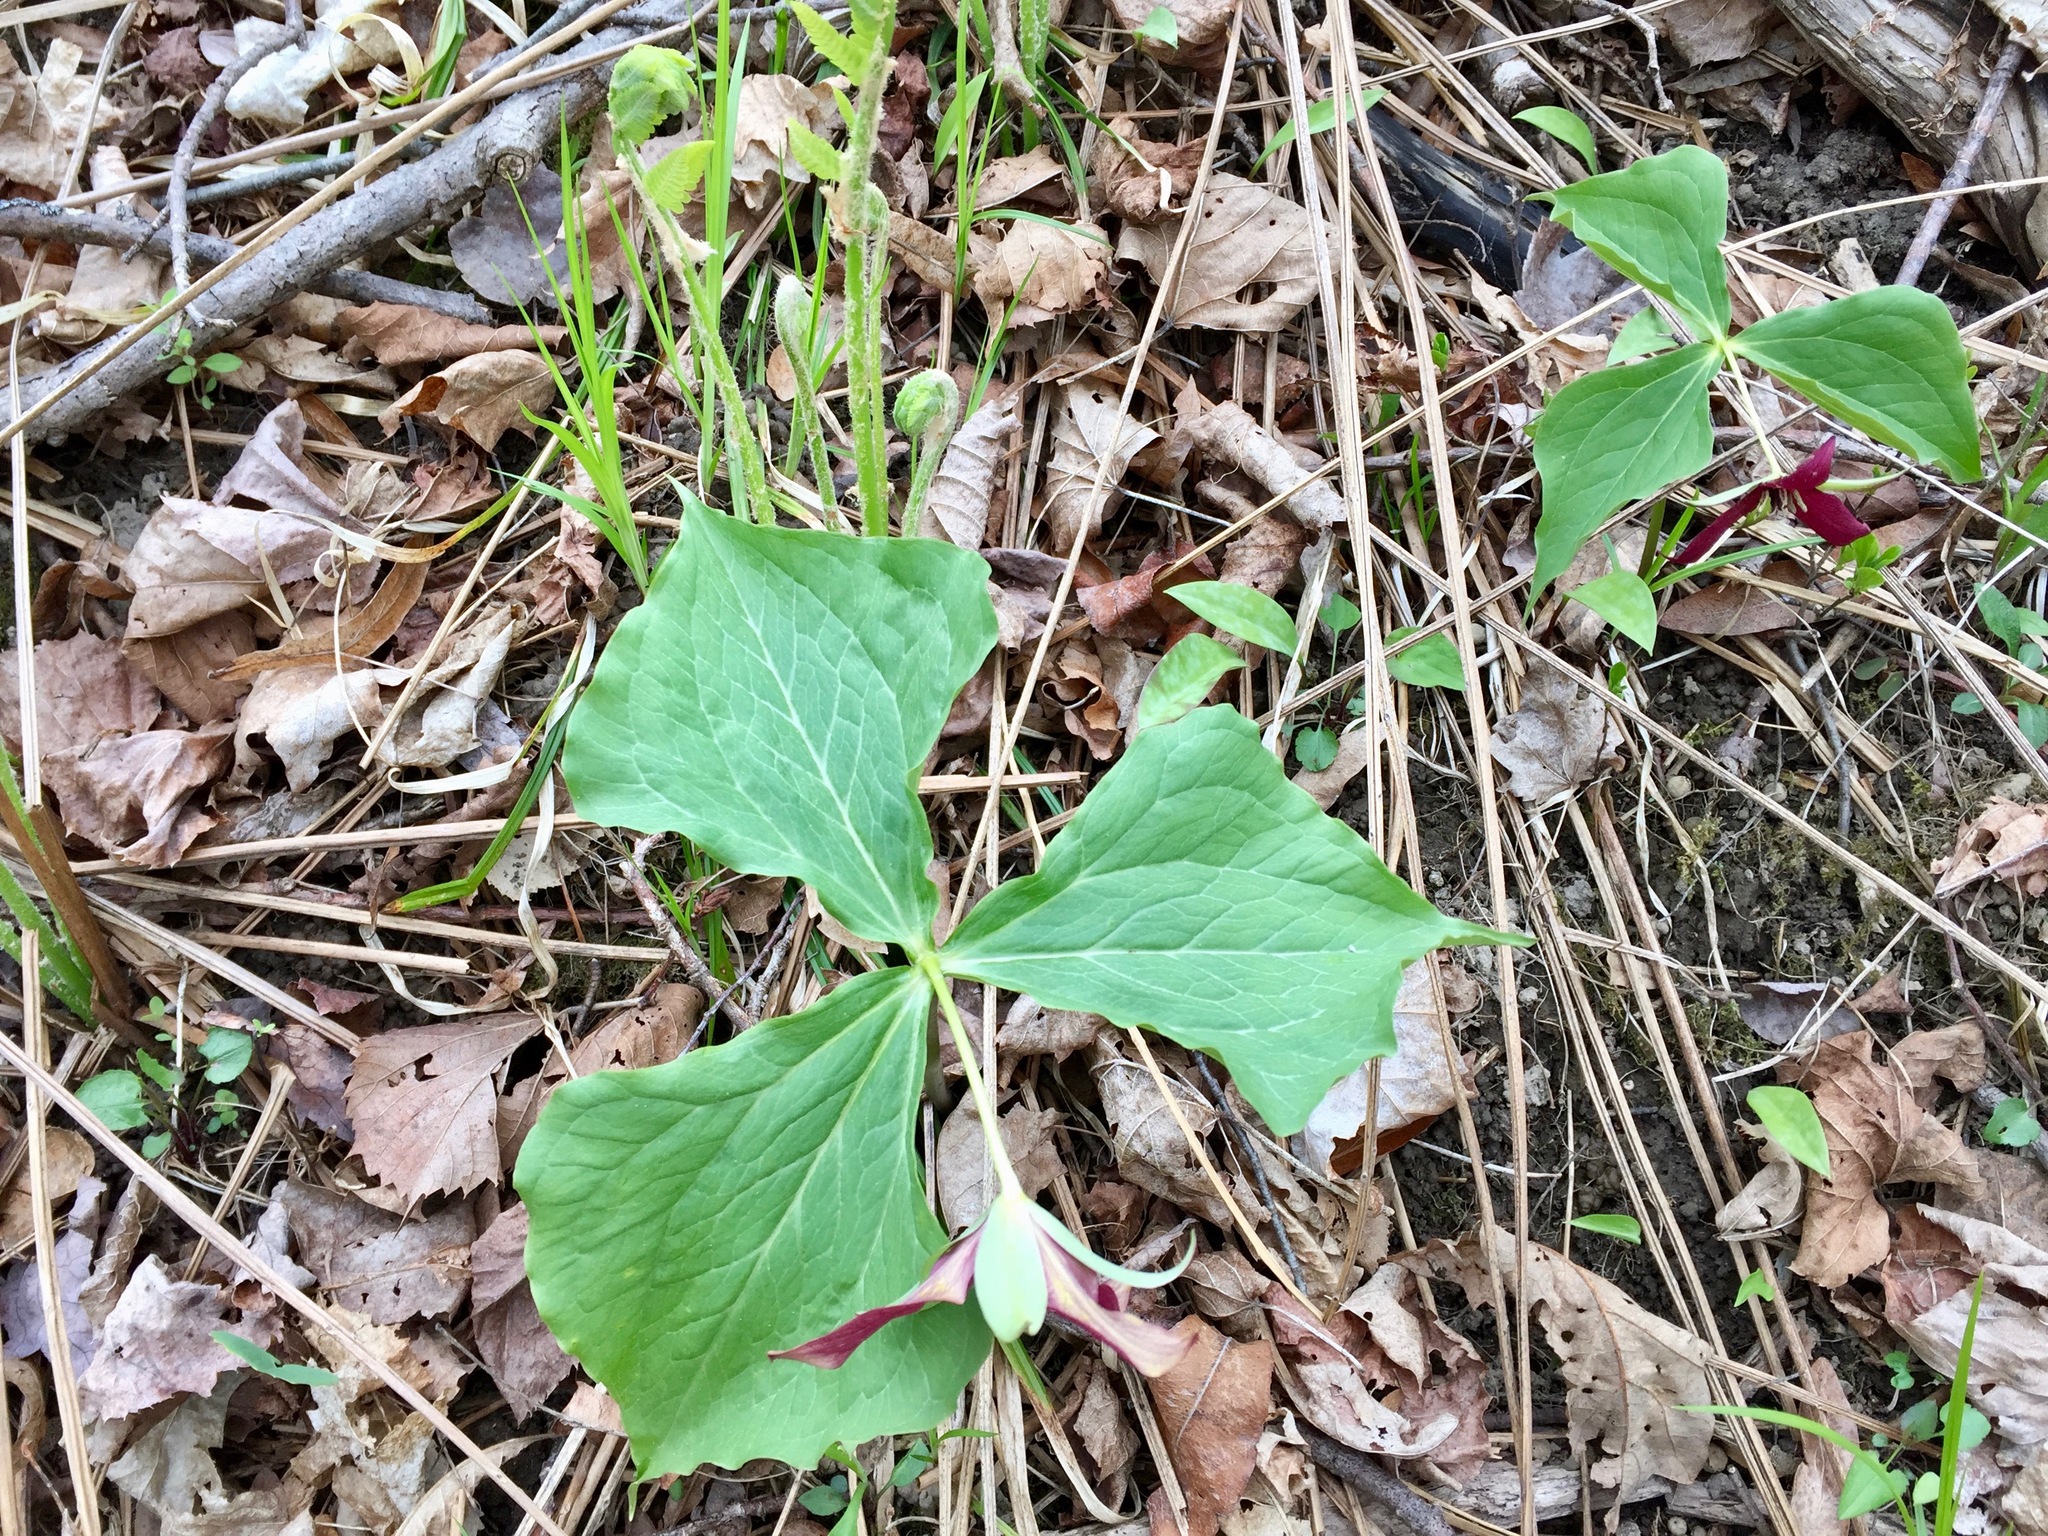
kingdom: Plantae
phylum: Tracheophyta
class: Liliopsida
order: Liliales
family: Melanthiaceae
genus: Trillium
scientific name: Trillium erectum
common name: Purple trillium
